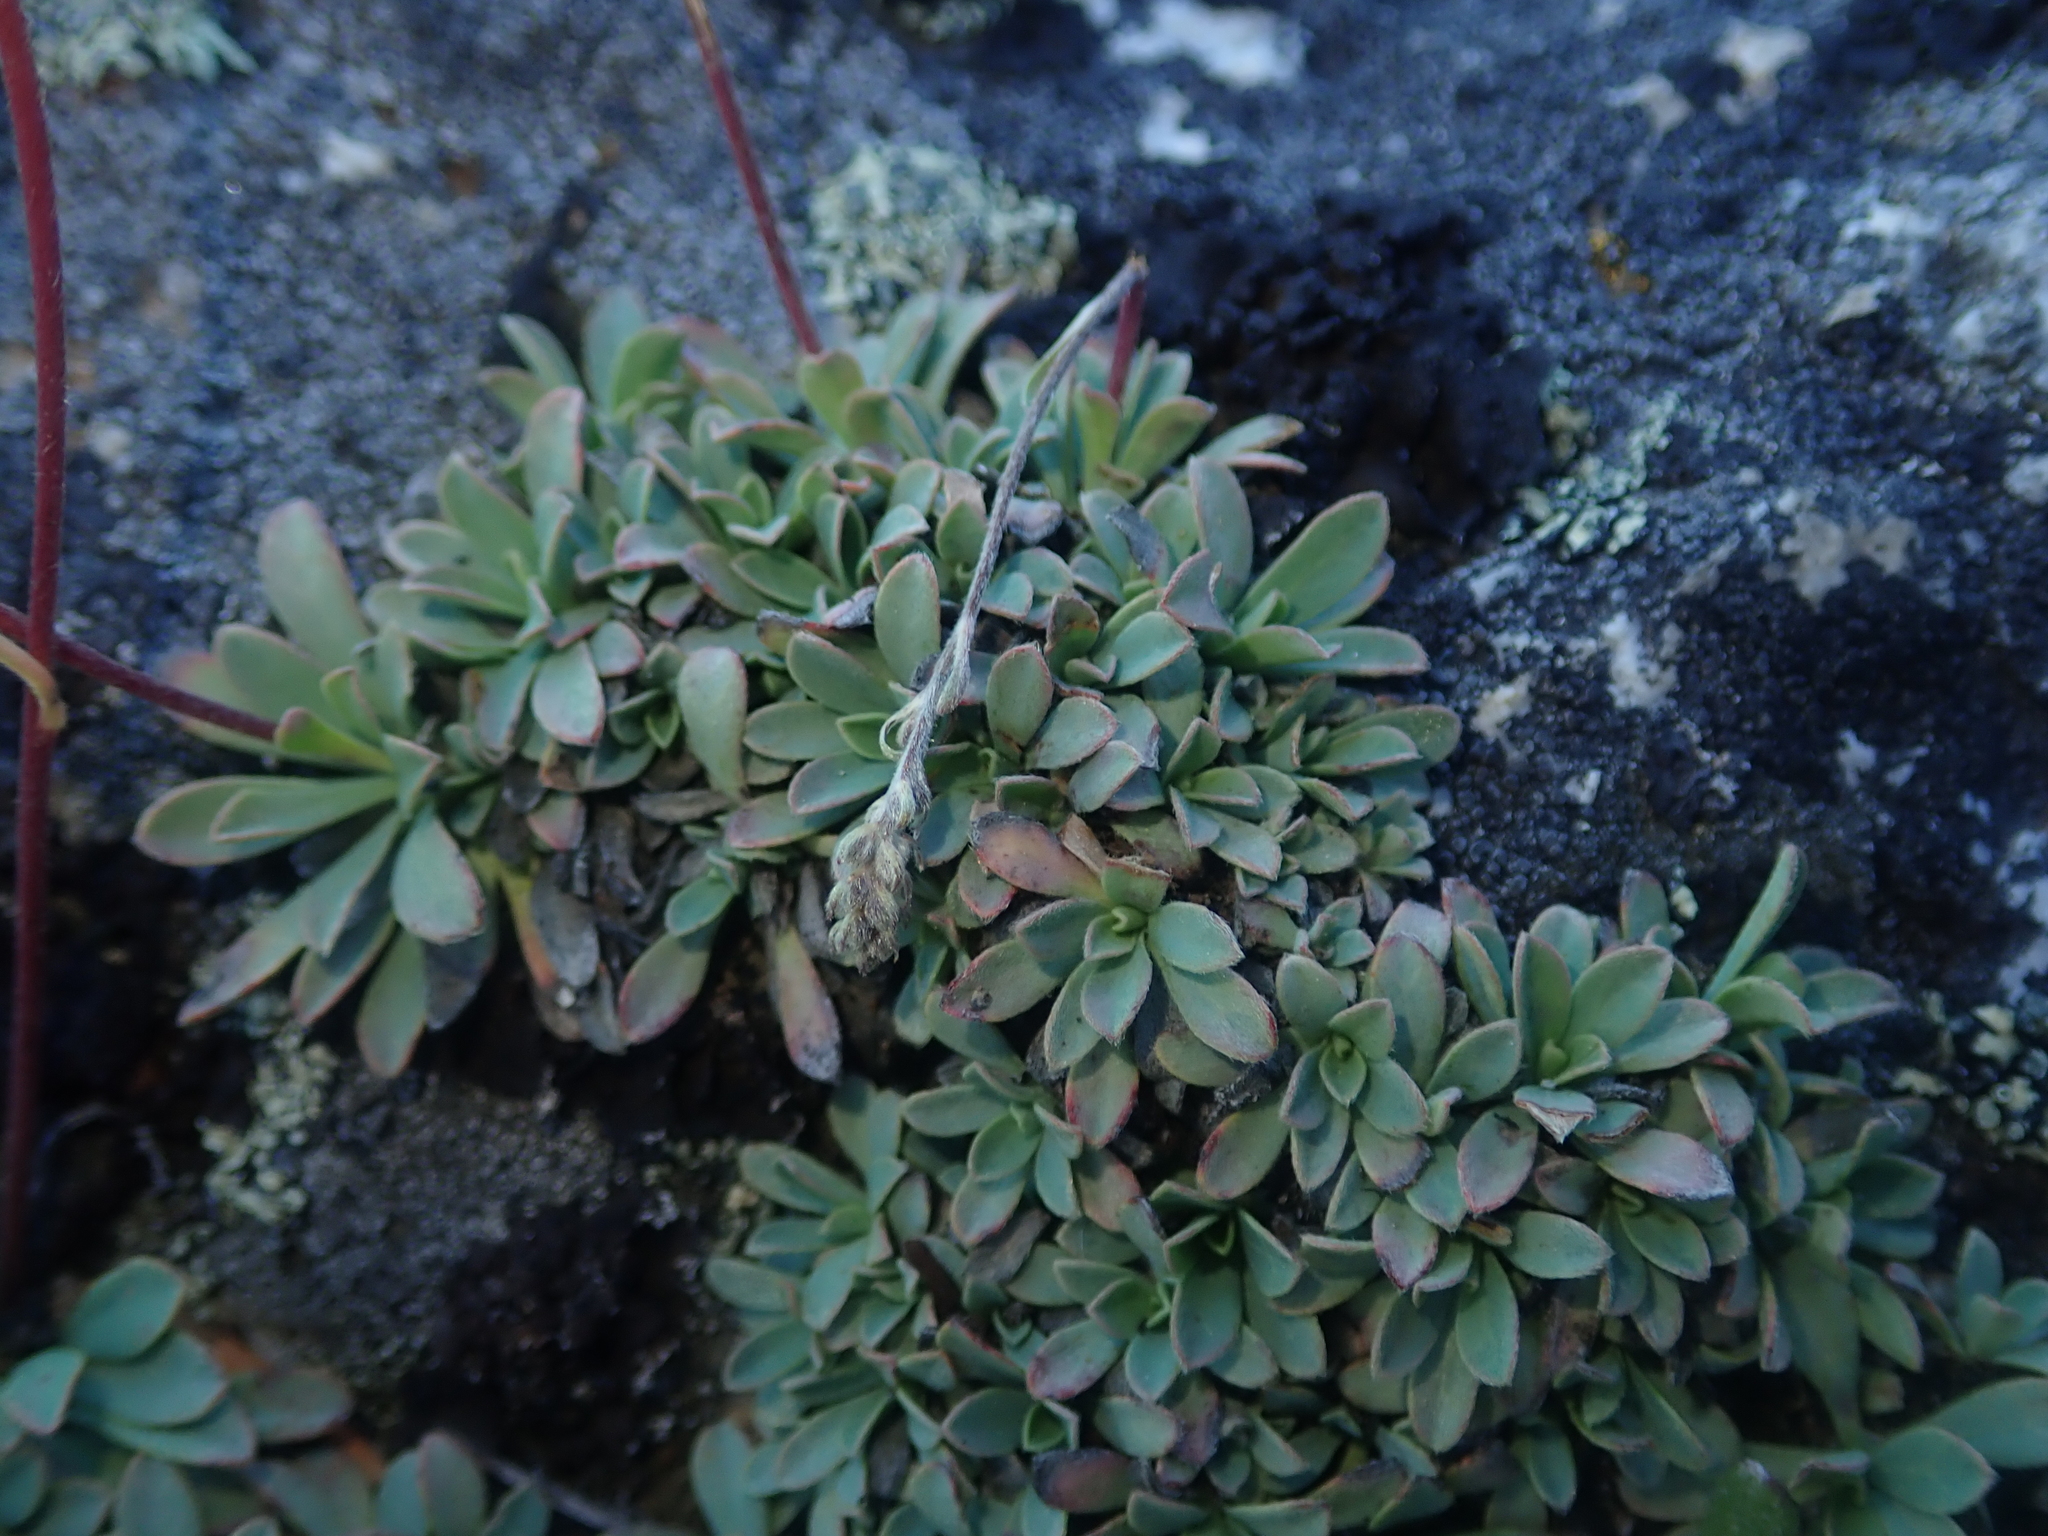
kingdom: Plantae
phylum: Tracheophyta
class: Magnoliopsida
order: Rosales
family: Rosaceae
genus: Petrophytum
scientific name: Petrophytum caespitosum
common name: Mat rockspirea
